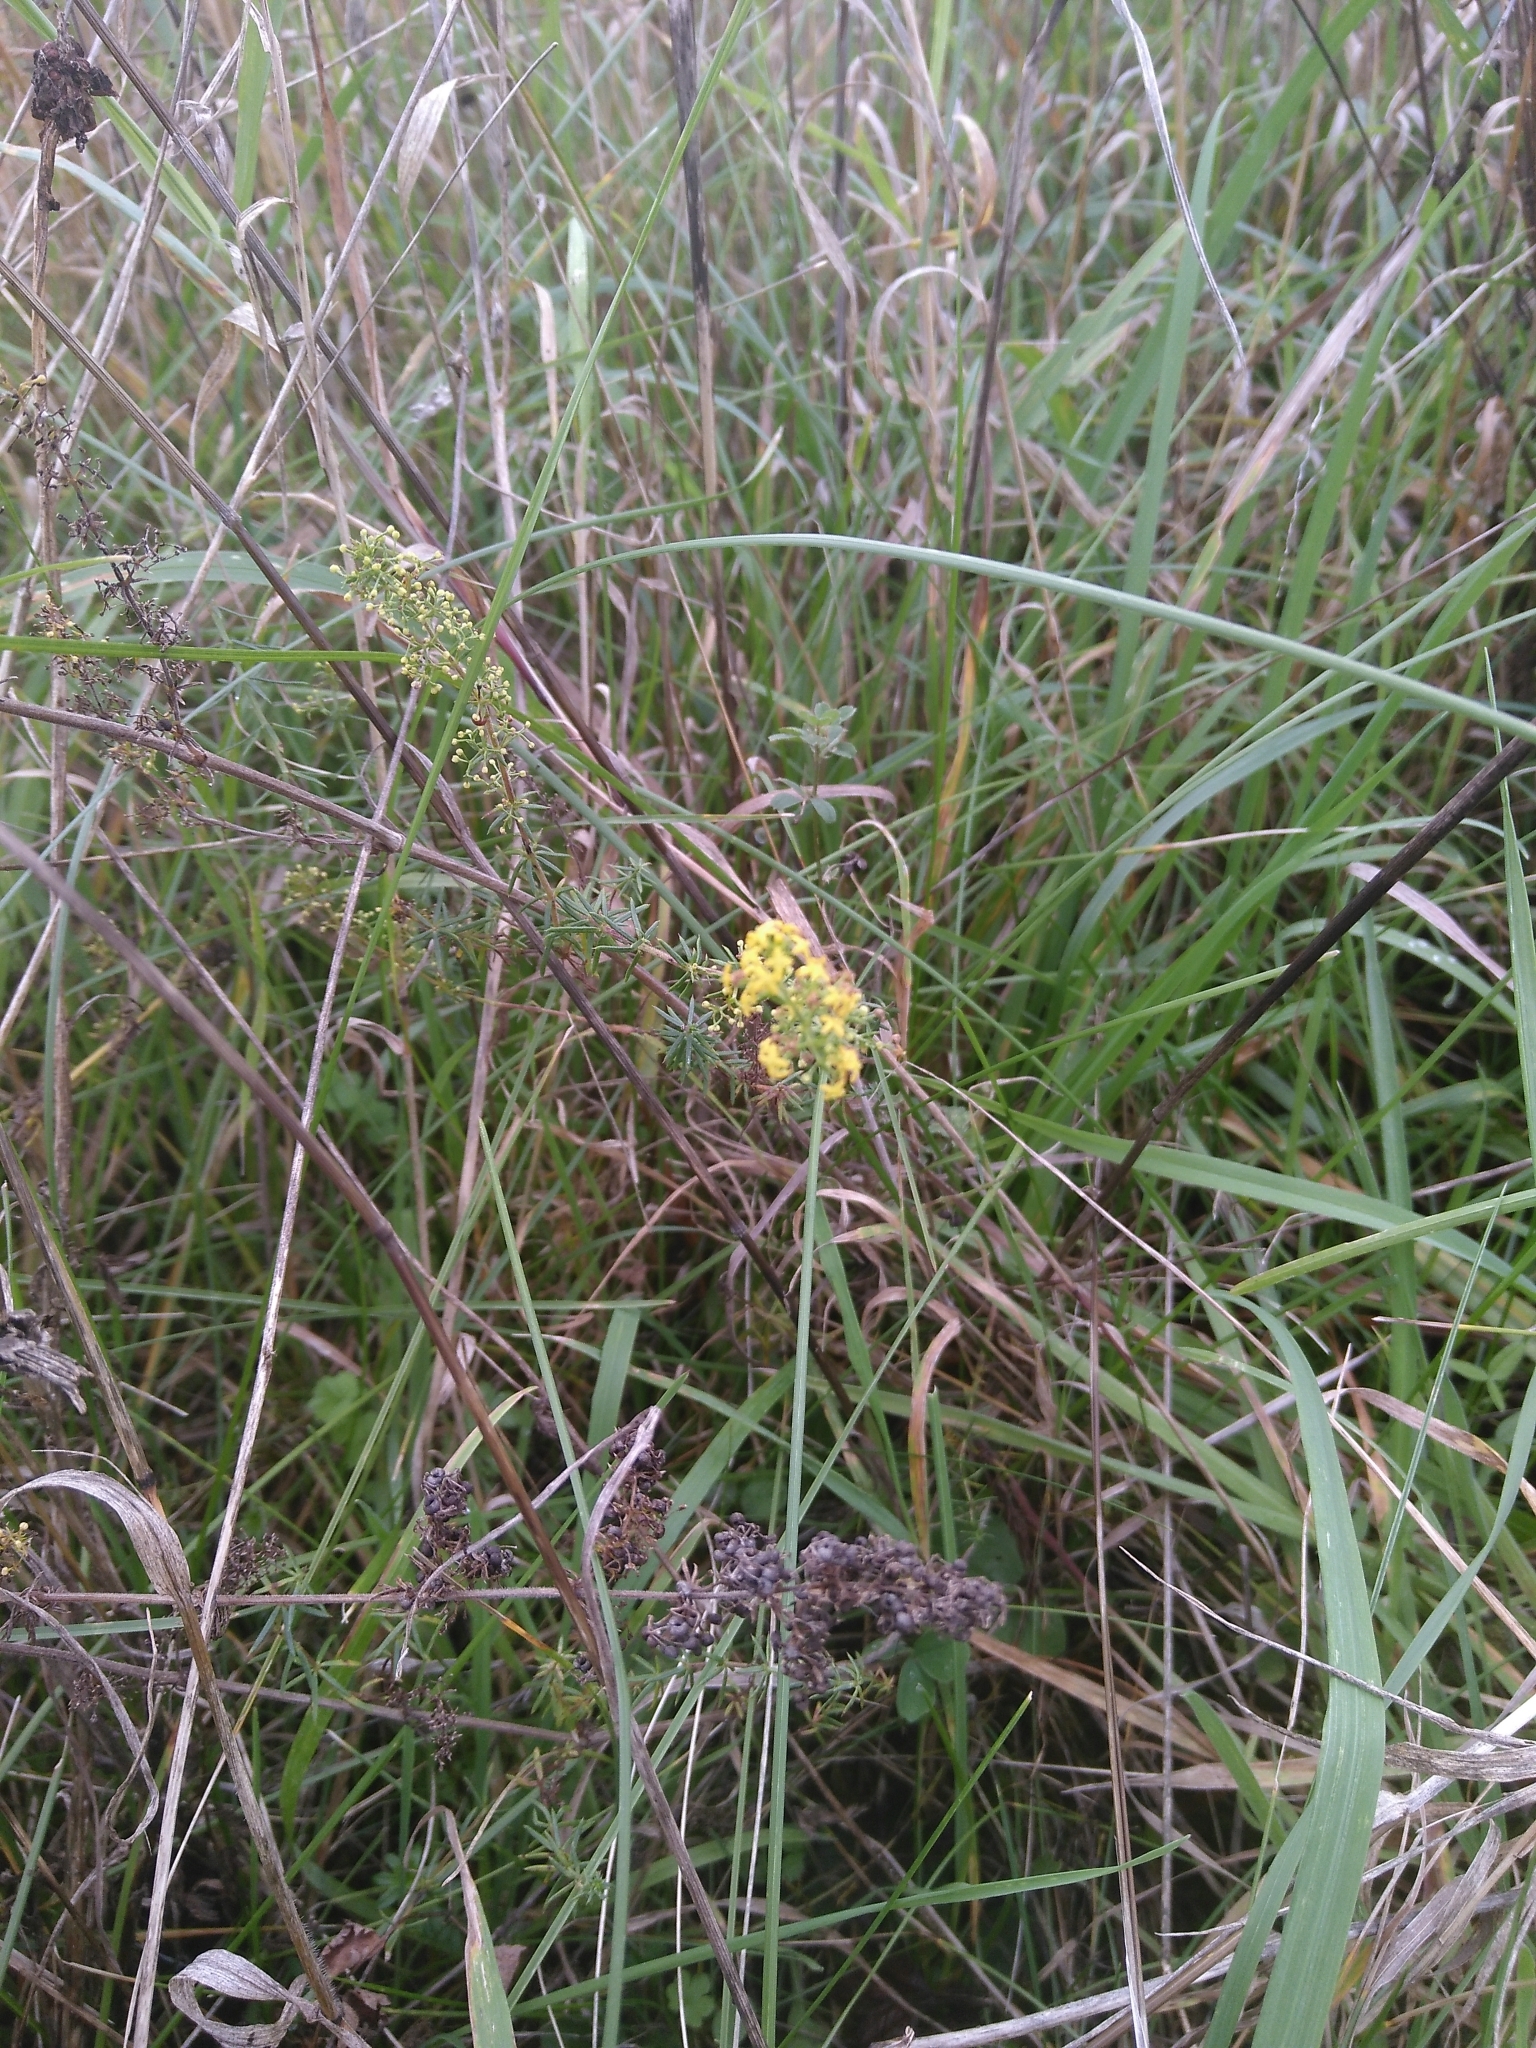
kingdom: Plantae
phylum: Tracheophyta
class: Magnoliopsida
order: Gentianales
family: Rubiaceae
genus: Galium
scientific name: Galium verum
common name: Lady's bedstraw
